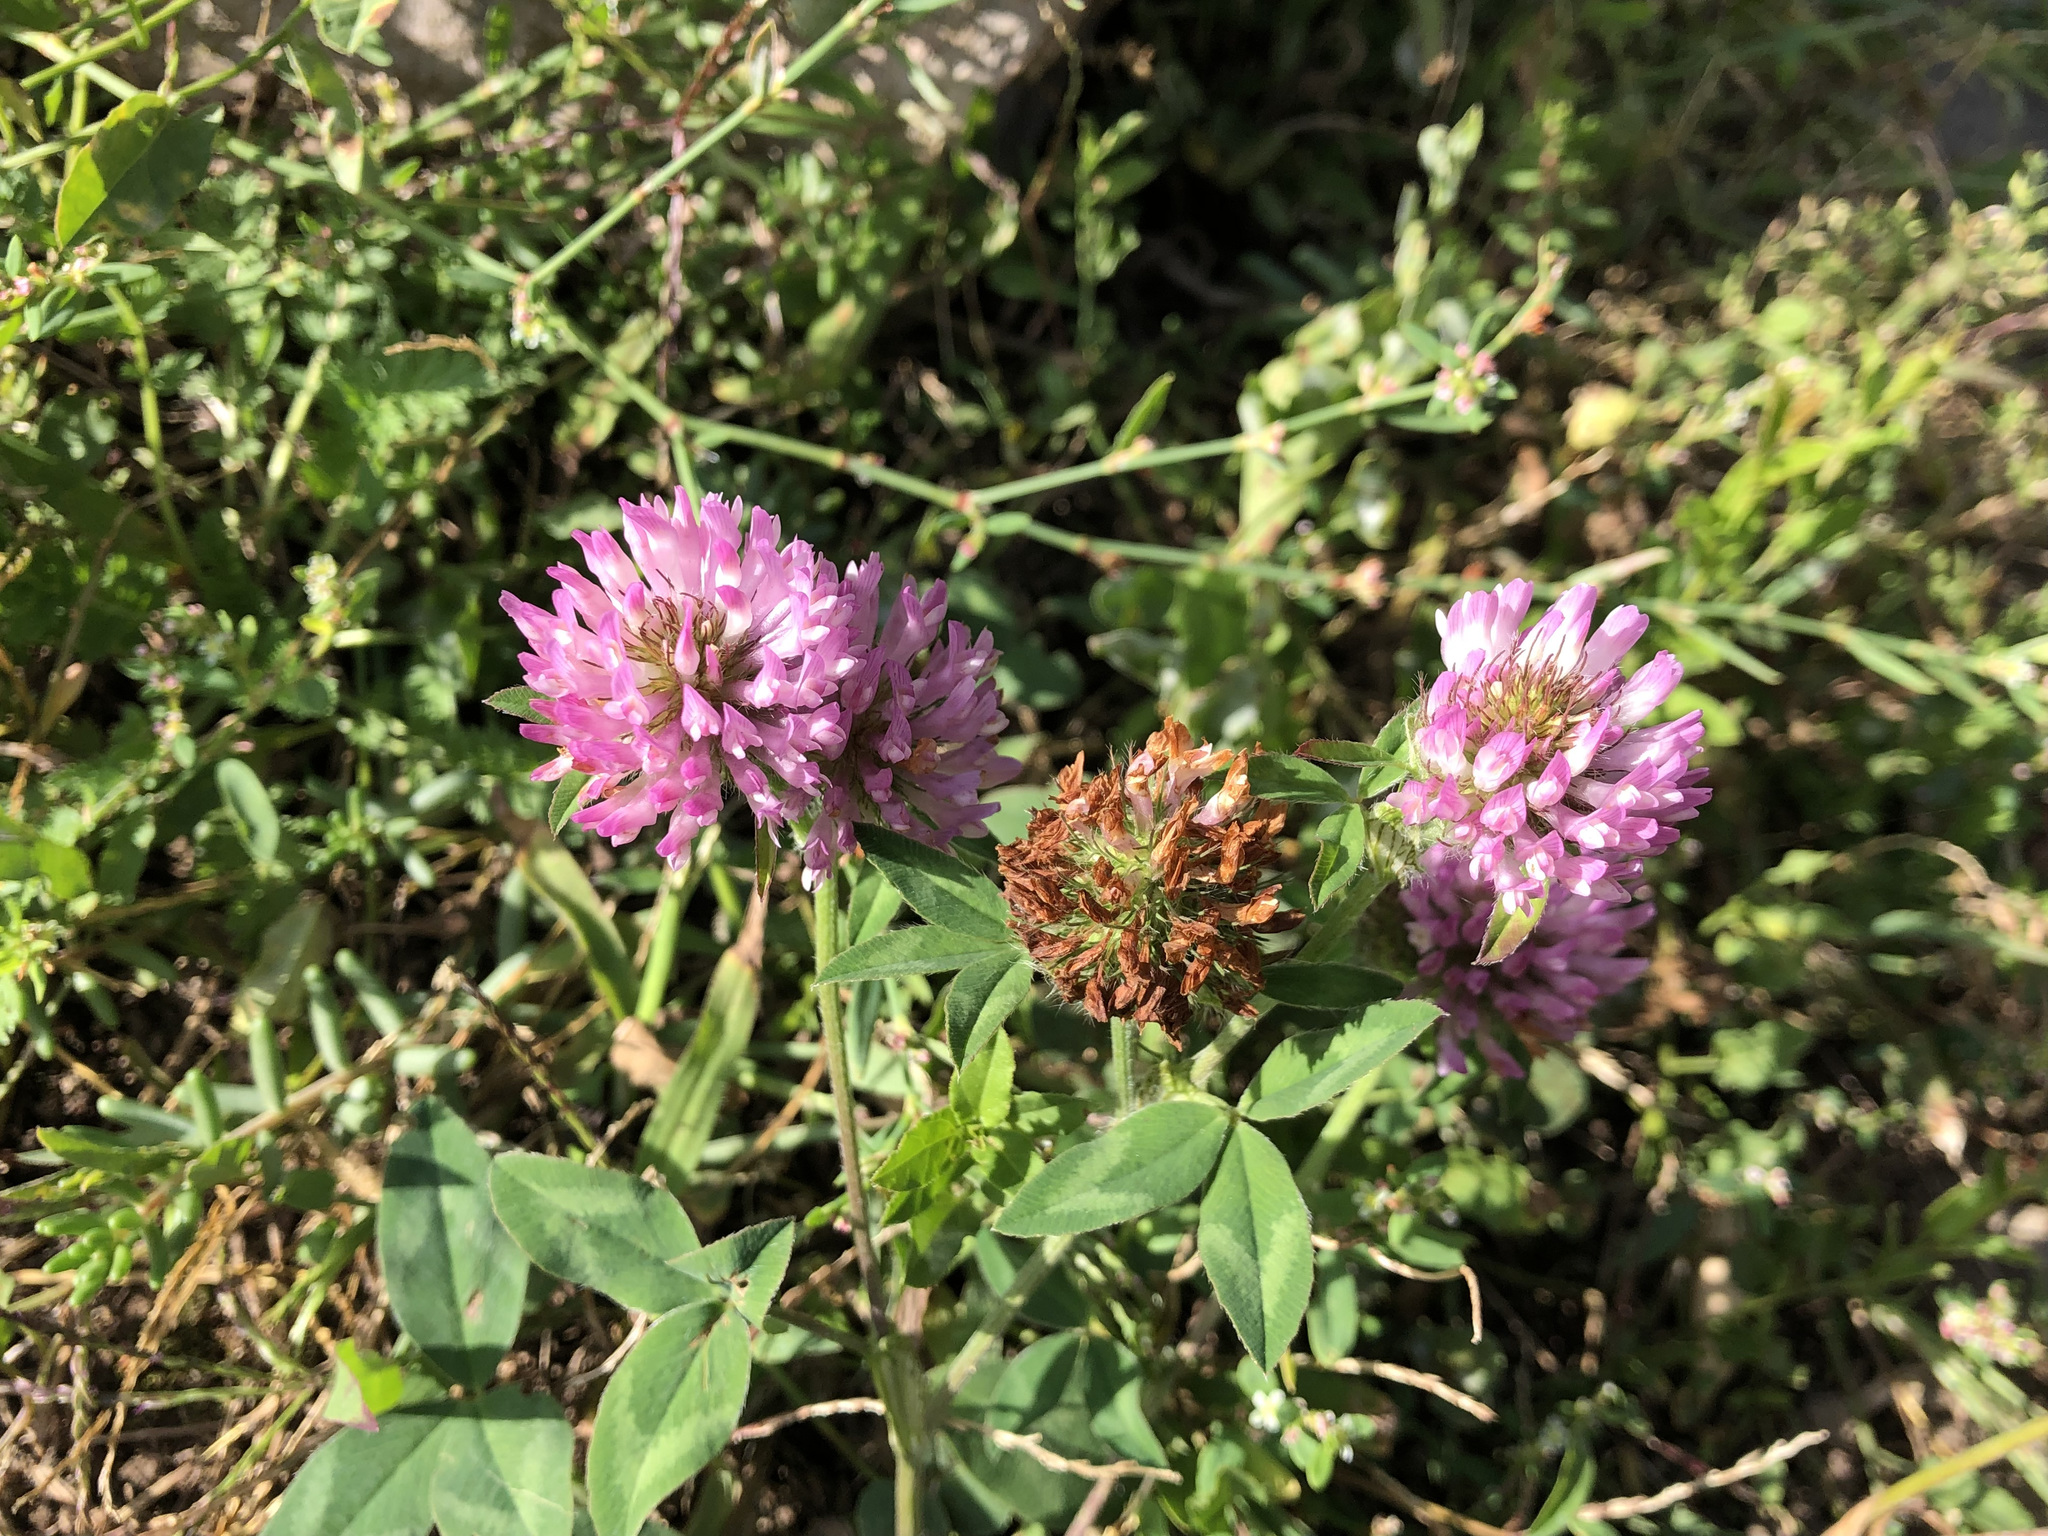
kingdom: Plantae
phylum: Tracheophyta
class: Magnoliopsida
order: Fabales
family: Fabaceae
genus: Trifolium
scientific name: Trifolium pratense
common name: Red clover
